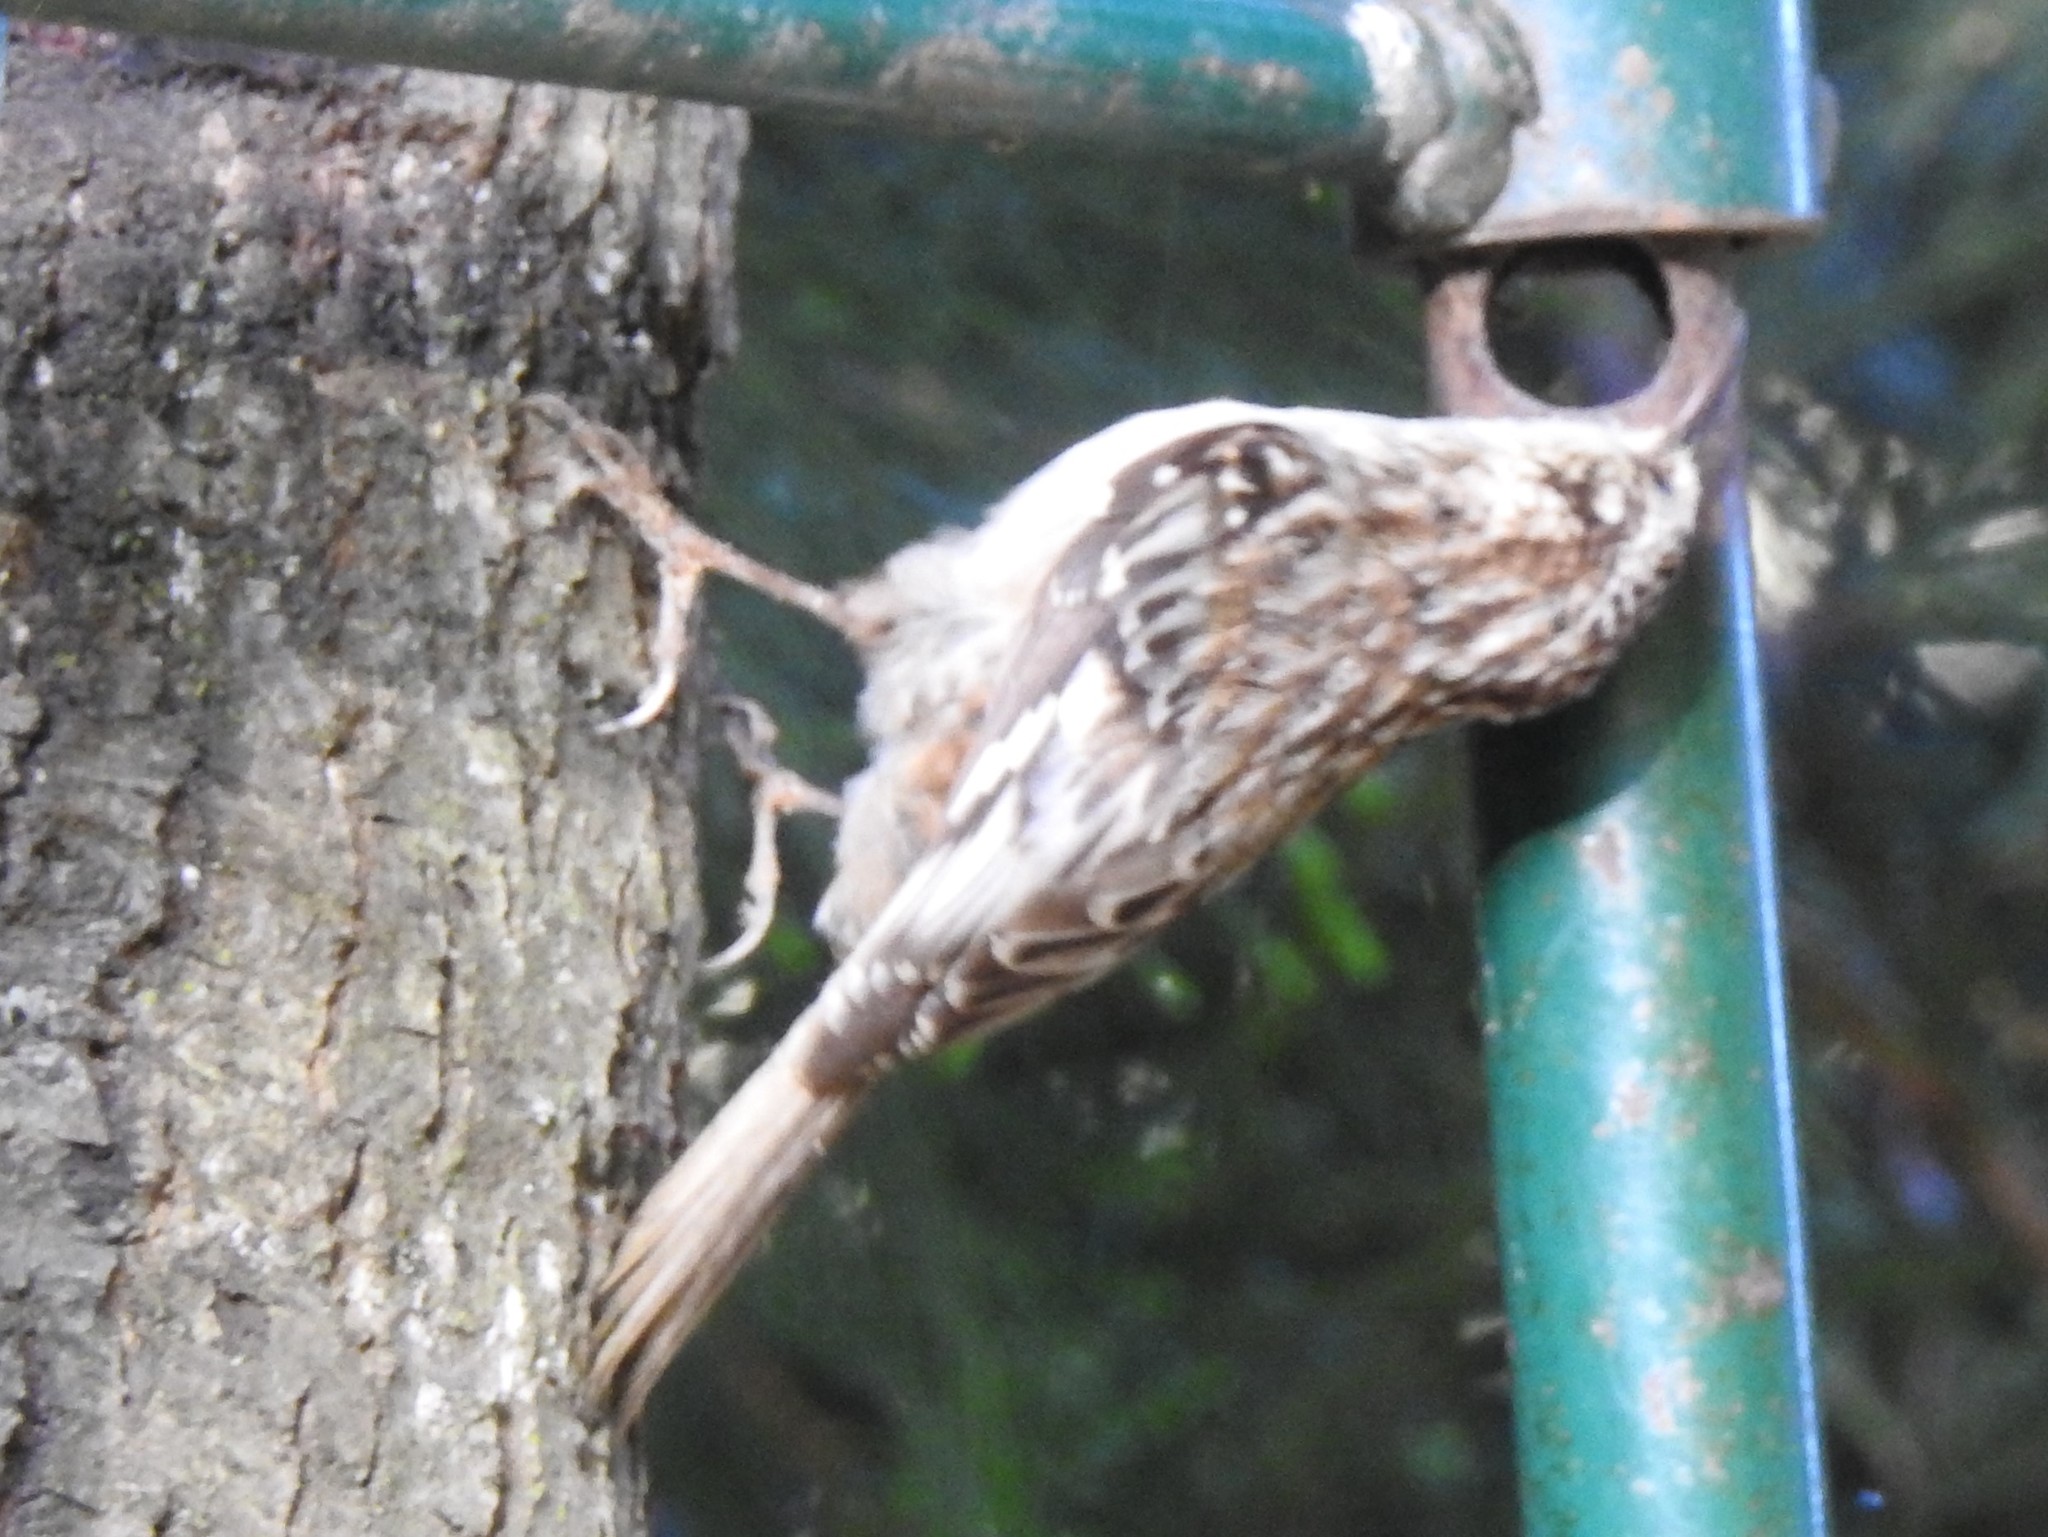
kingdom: Animalia
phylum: Chordata
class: Aves
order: Passeriformes
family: Certhiidae
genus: Certhia
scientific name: Certhia americana
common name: Brown creeper
